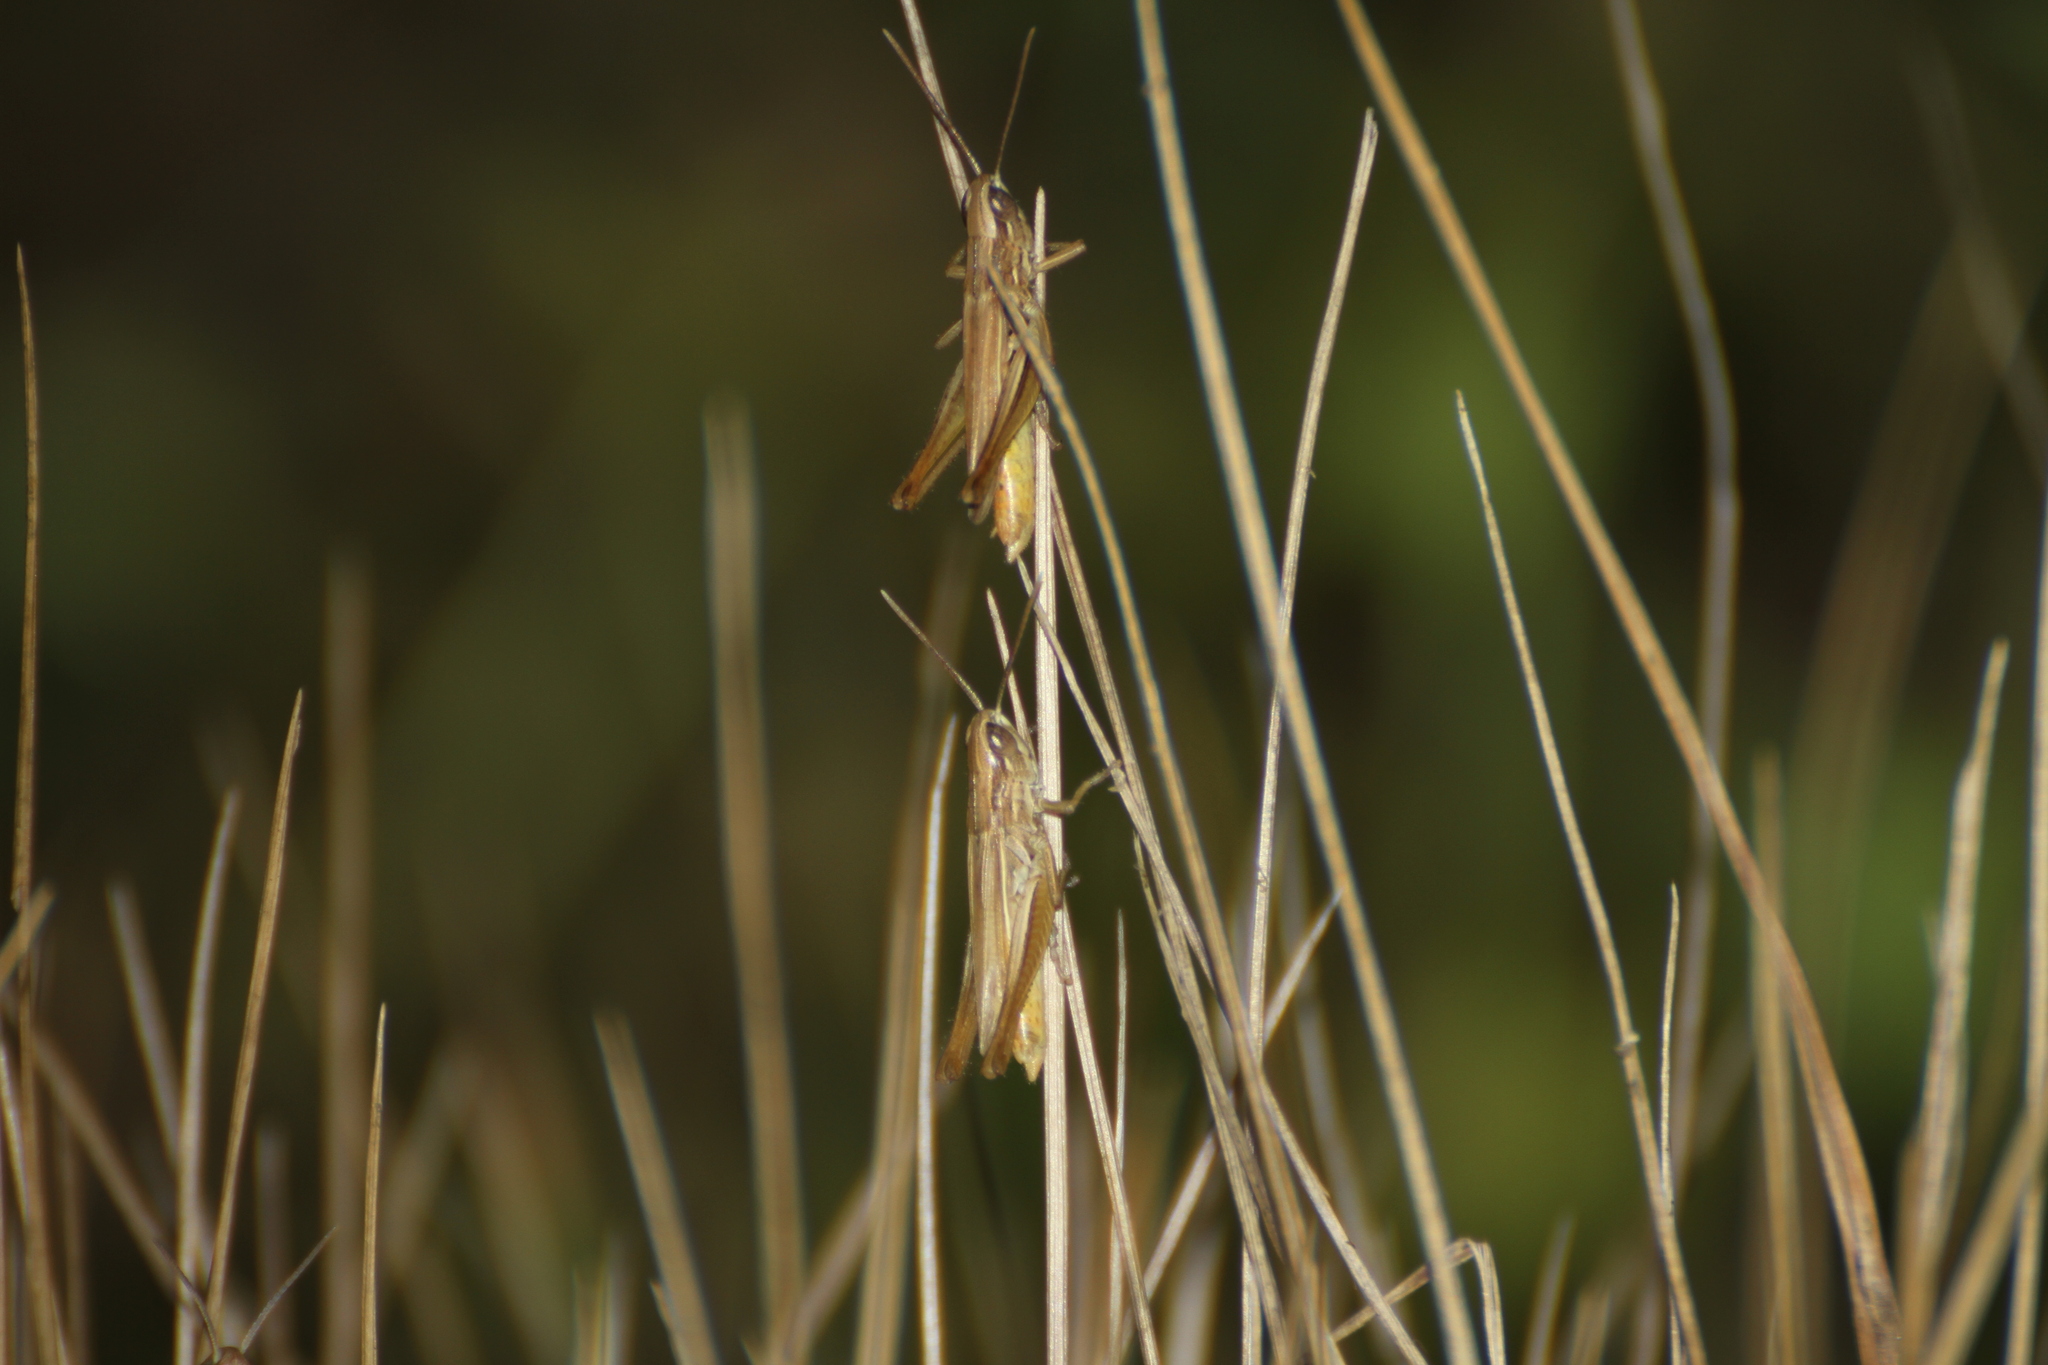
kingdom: Animalia
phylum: Arthropoda
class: Insecta
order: Orthoptera
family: Acrididae
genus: Euchorthippus
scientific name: Euchorthippus elegantulus
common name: Elegant straw grasshopper
